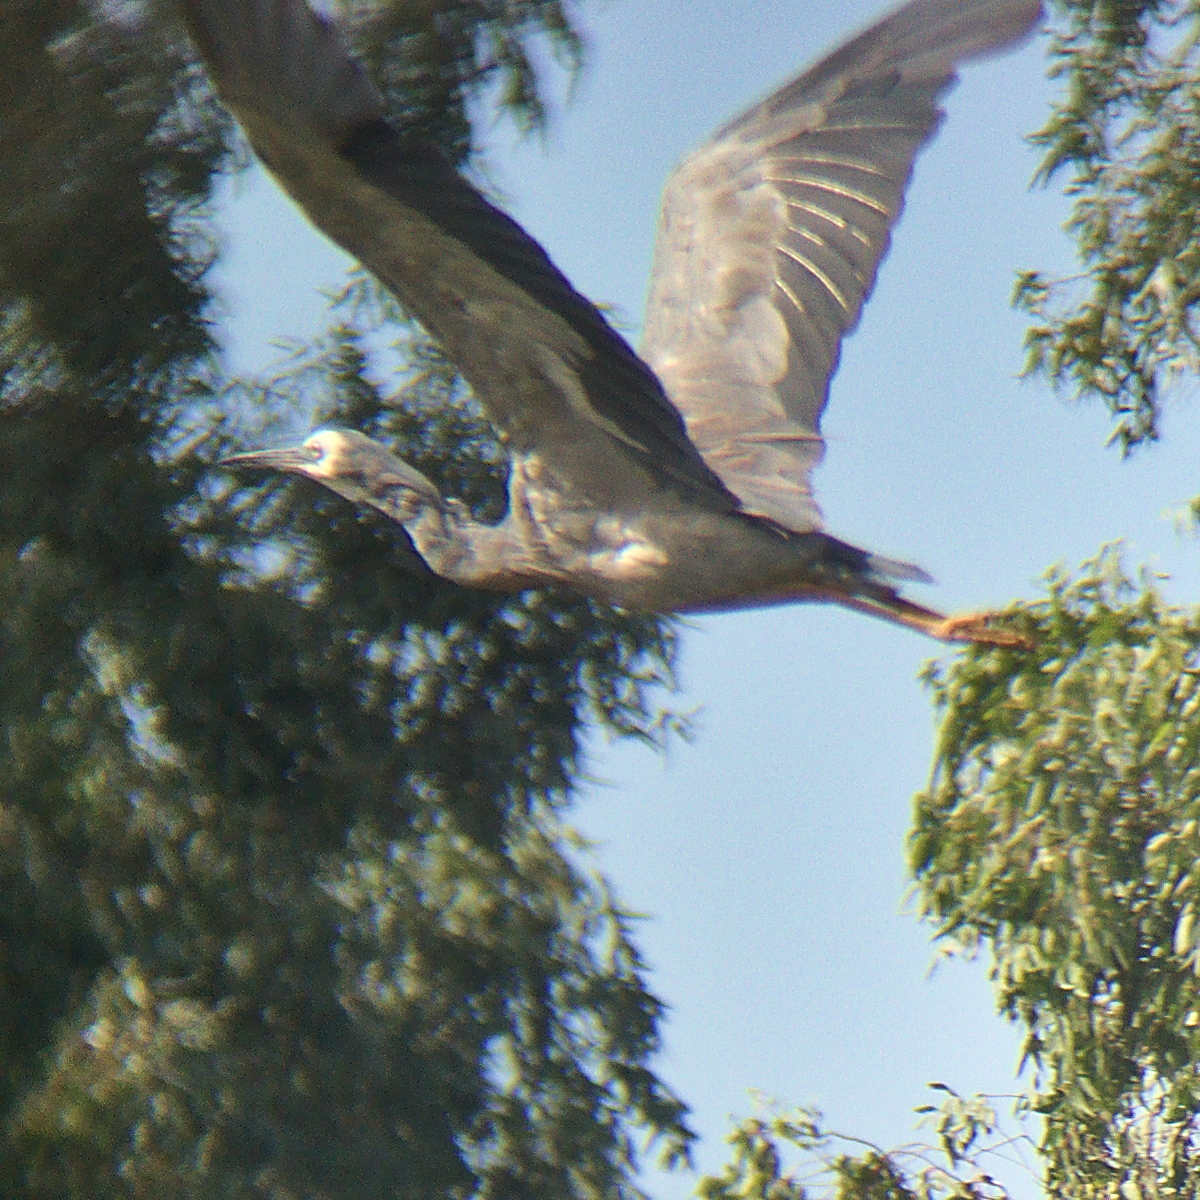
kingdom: Animalia
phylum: Chordata
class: Aves
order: Pelecaniformes
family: Ardeidae
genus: Egretta
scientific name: Egretta novaehollandiae
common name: White-faced heron
